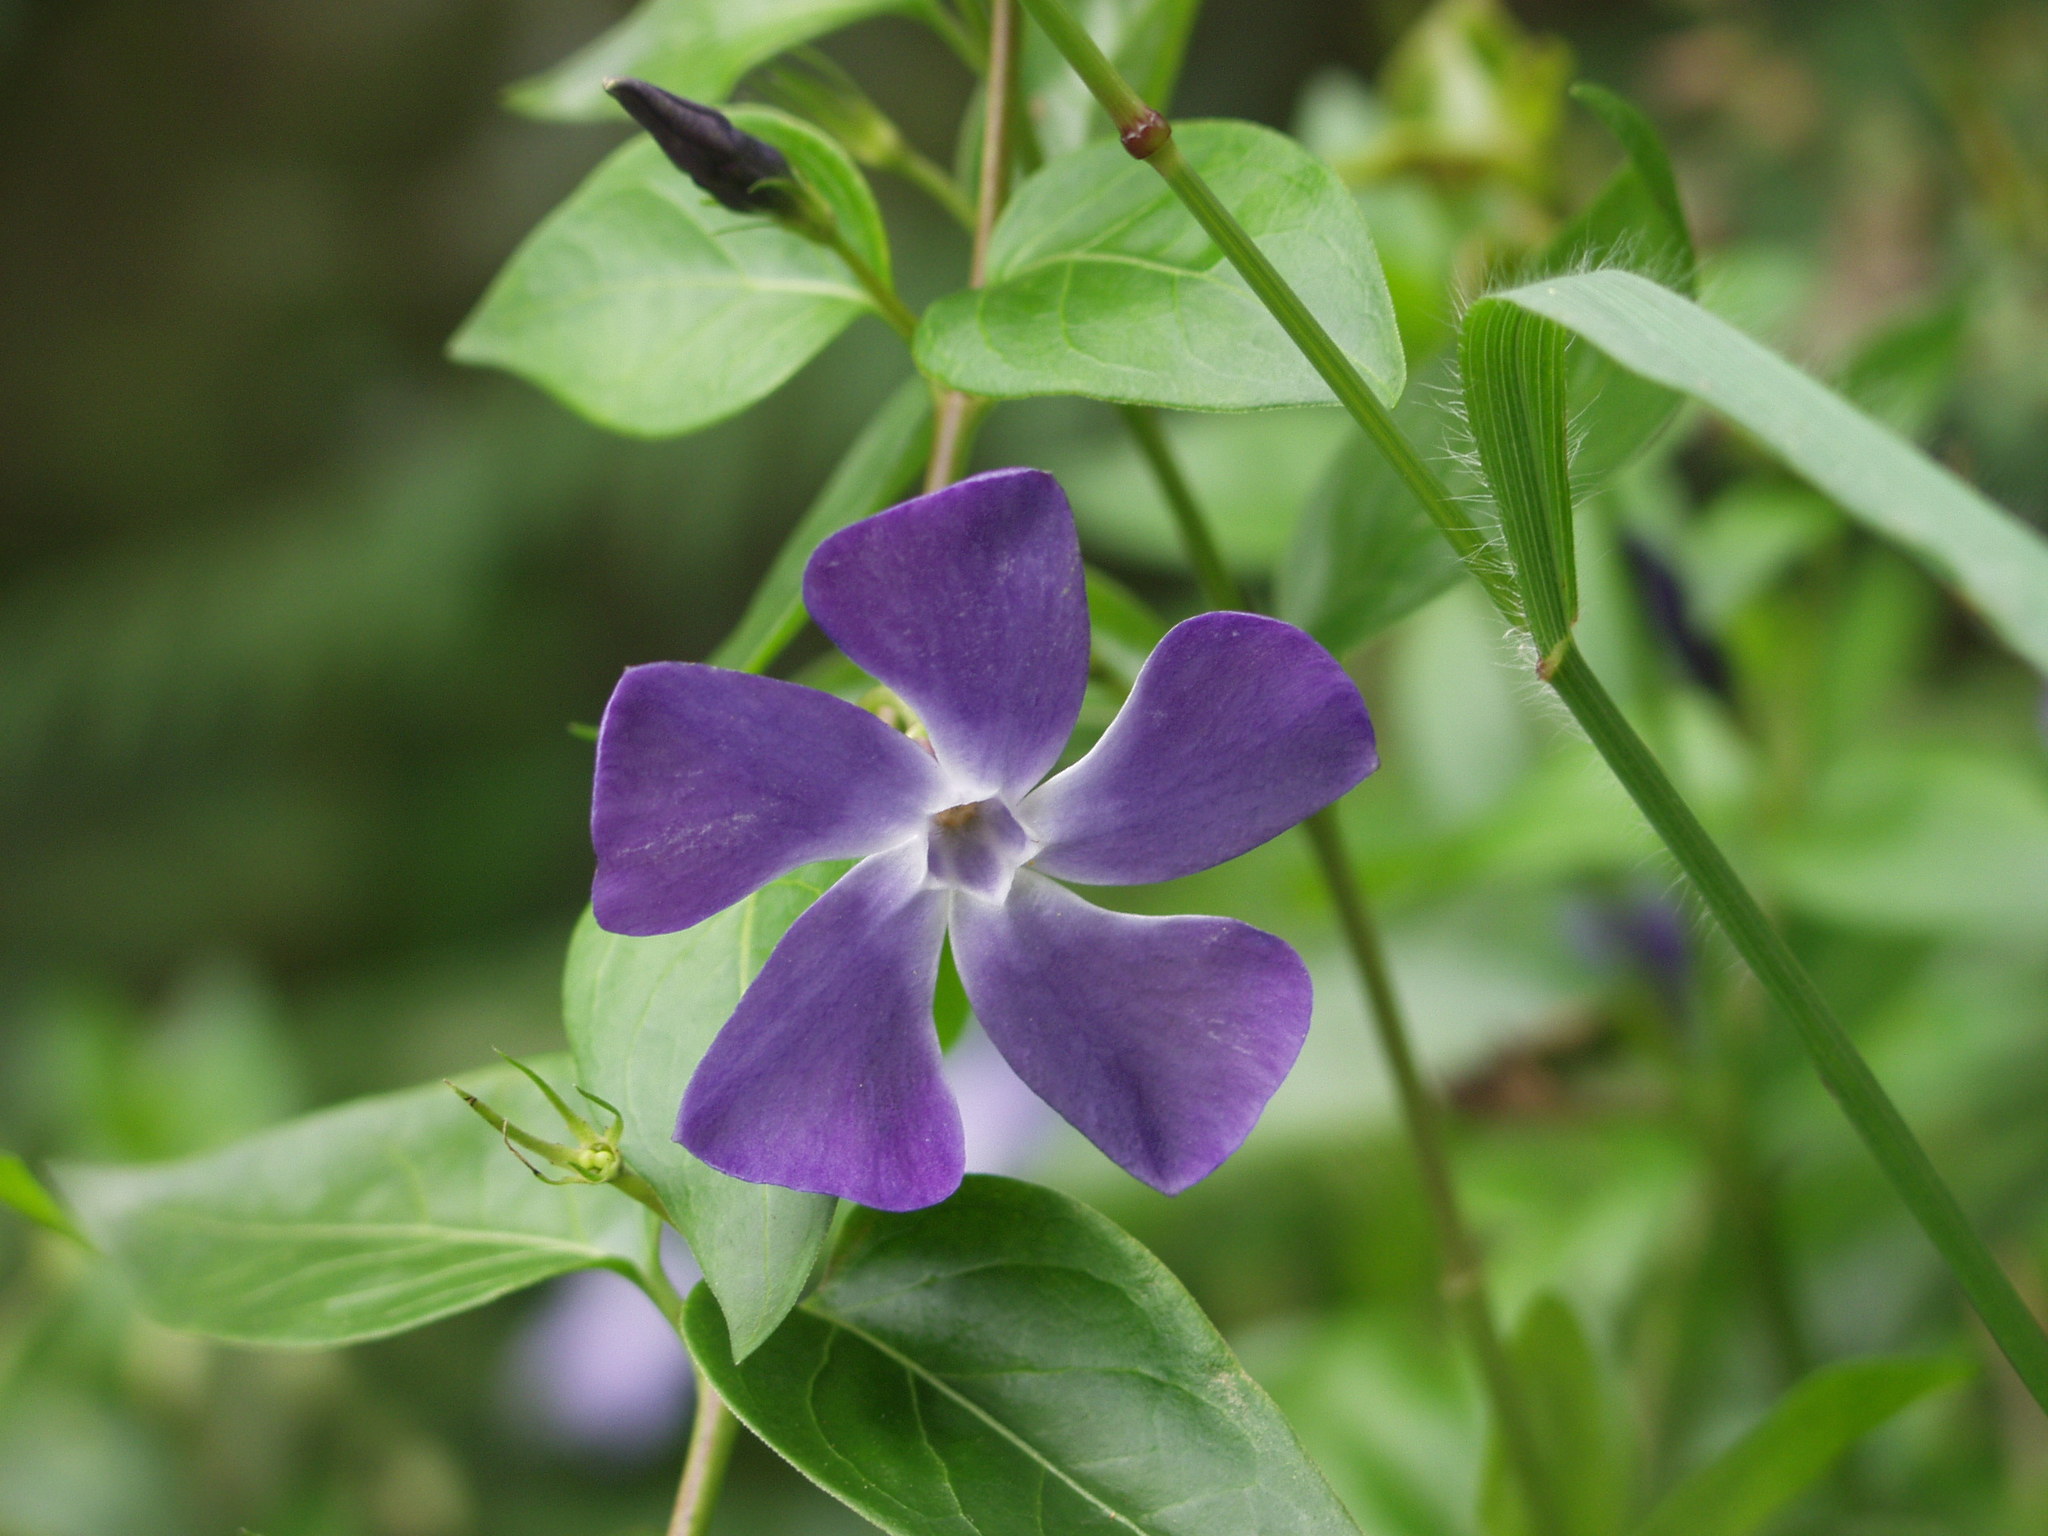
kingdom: Plantae
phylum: Tracheophyta
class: Magnoliopsida
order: Gentianales
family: Apocynaceae
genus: Vinca
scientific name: Vinca major
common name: Greater periwinkle
